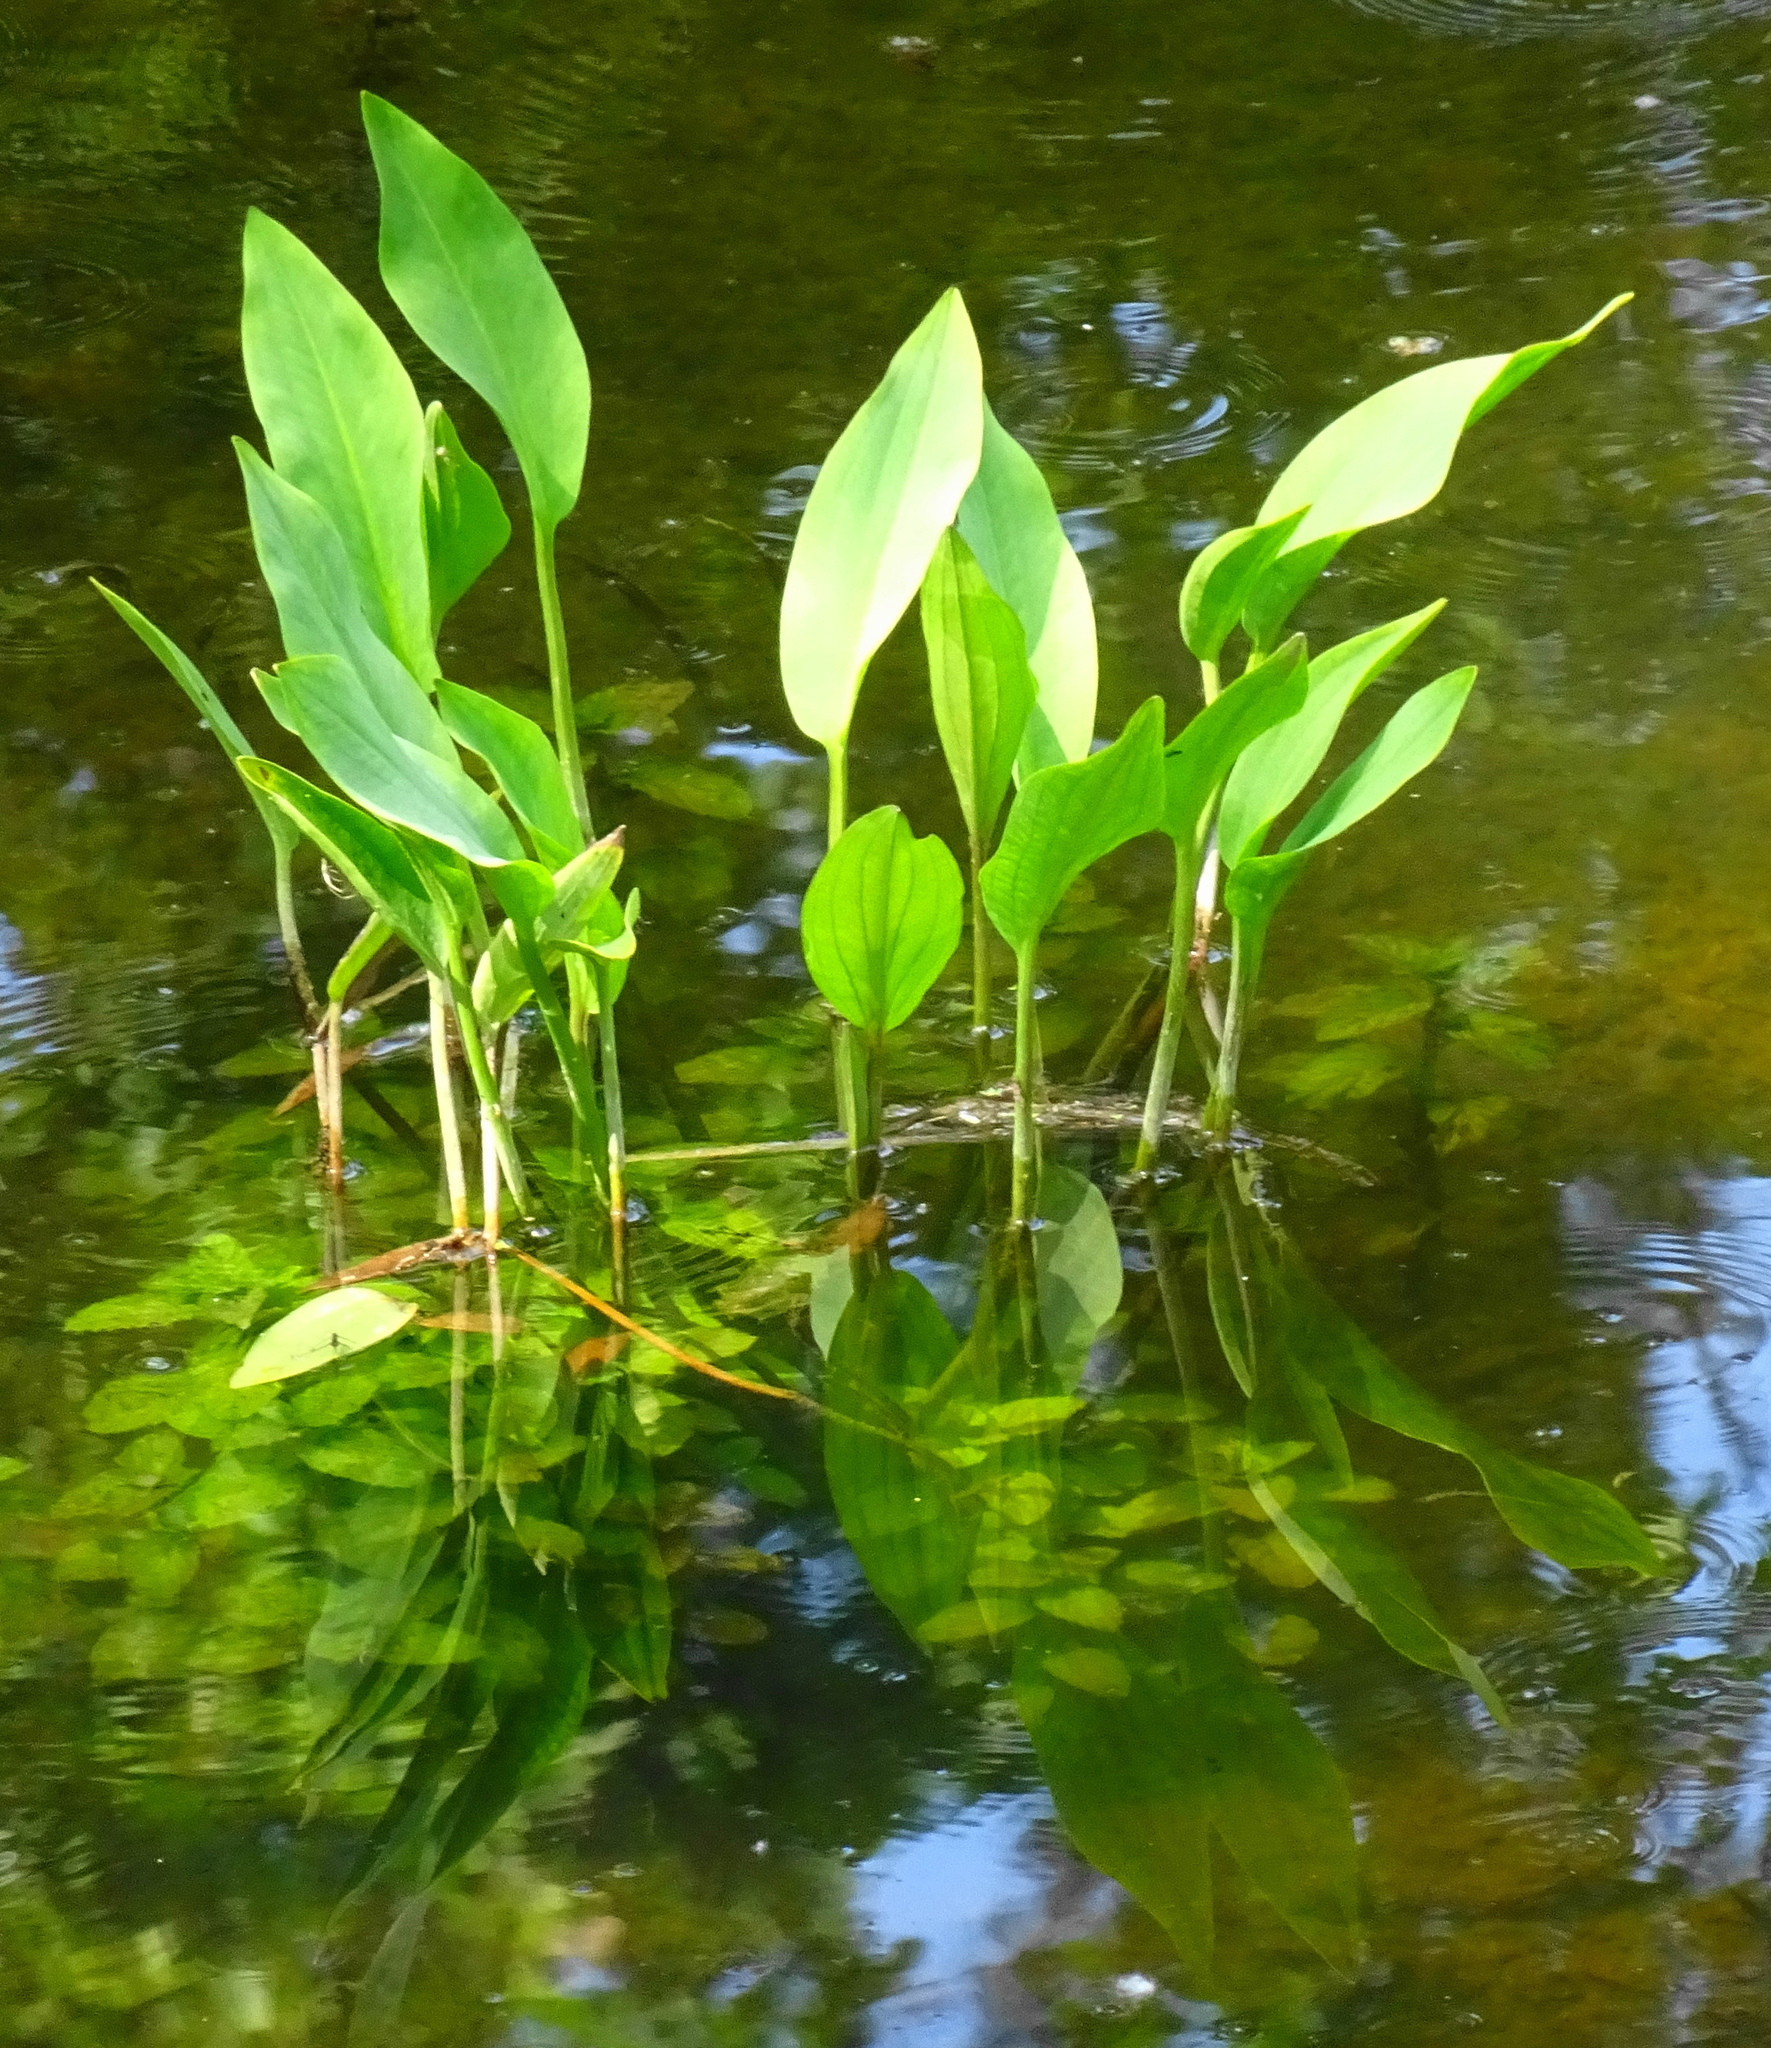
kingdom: Plantae
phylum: Tracheophyta
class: Liliopsida
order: Alismatales
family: Alismataceae
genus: Alisma
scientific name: Alisma plantago-aquatica
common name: Water-plantain
